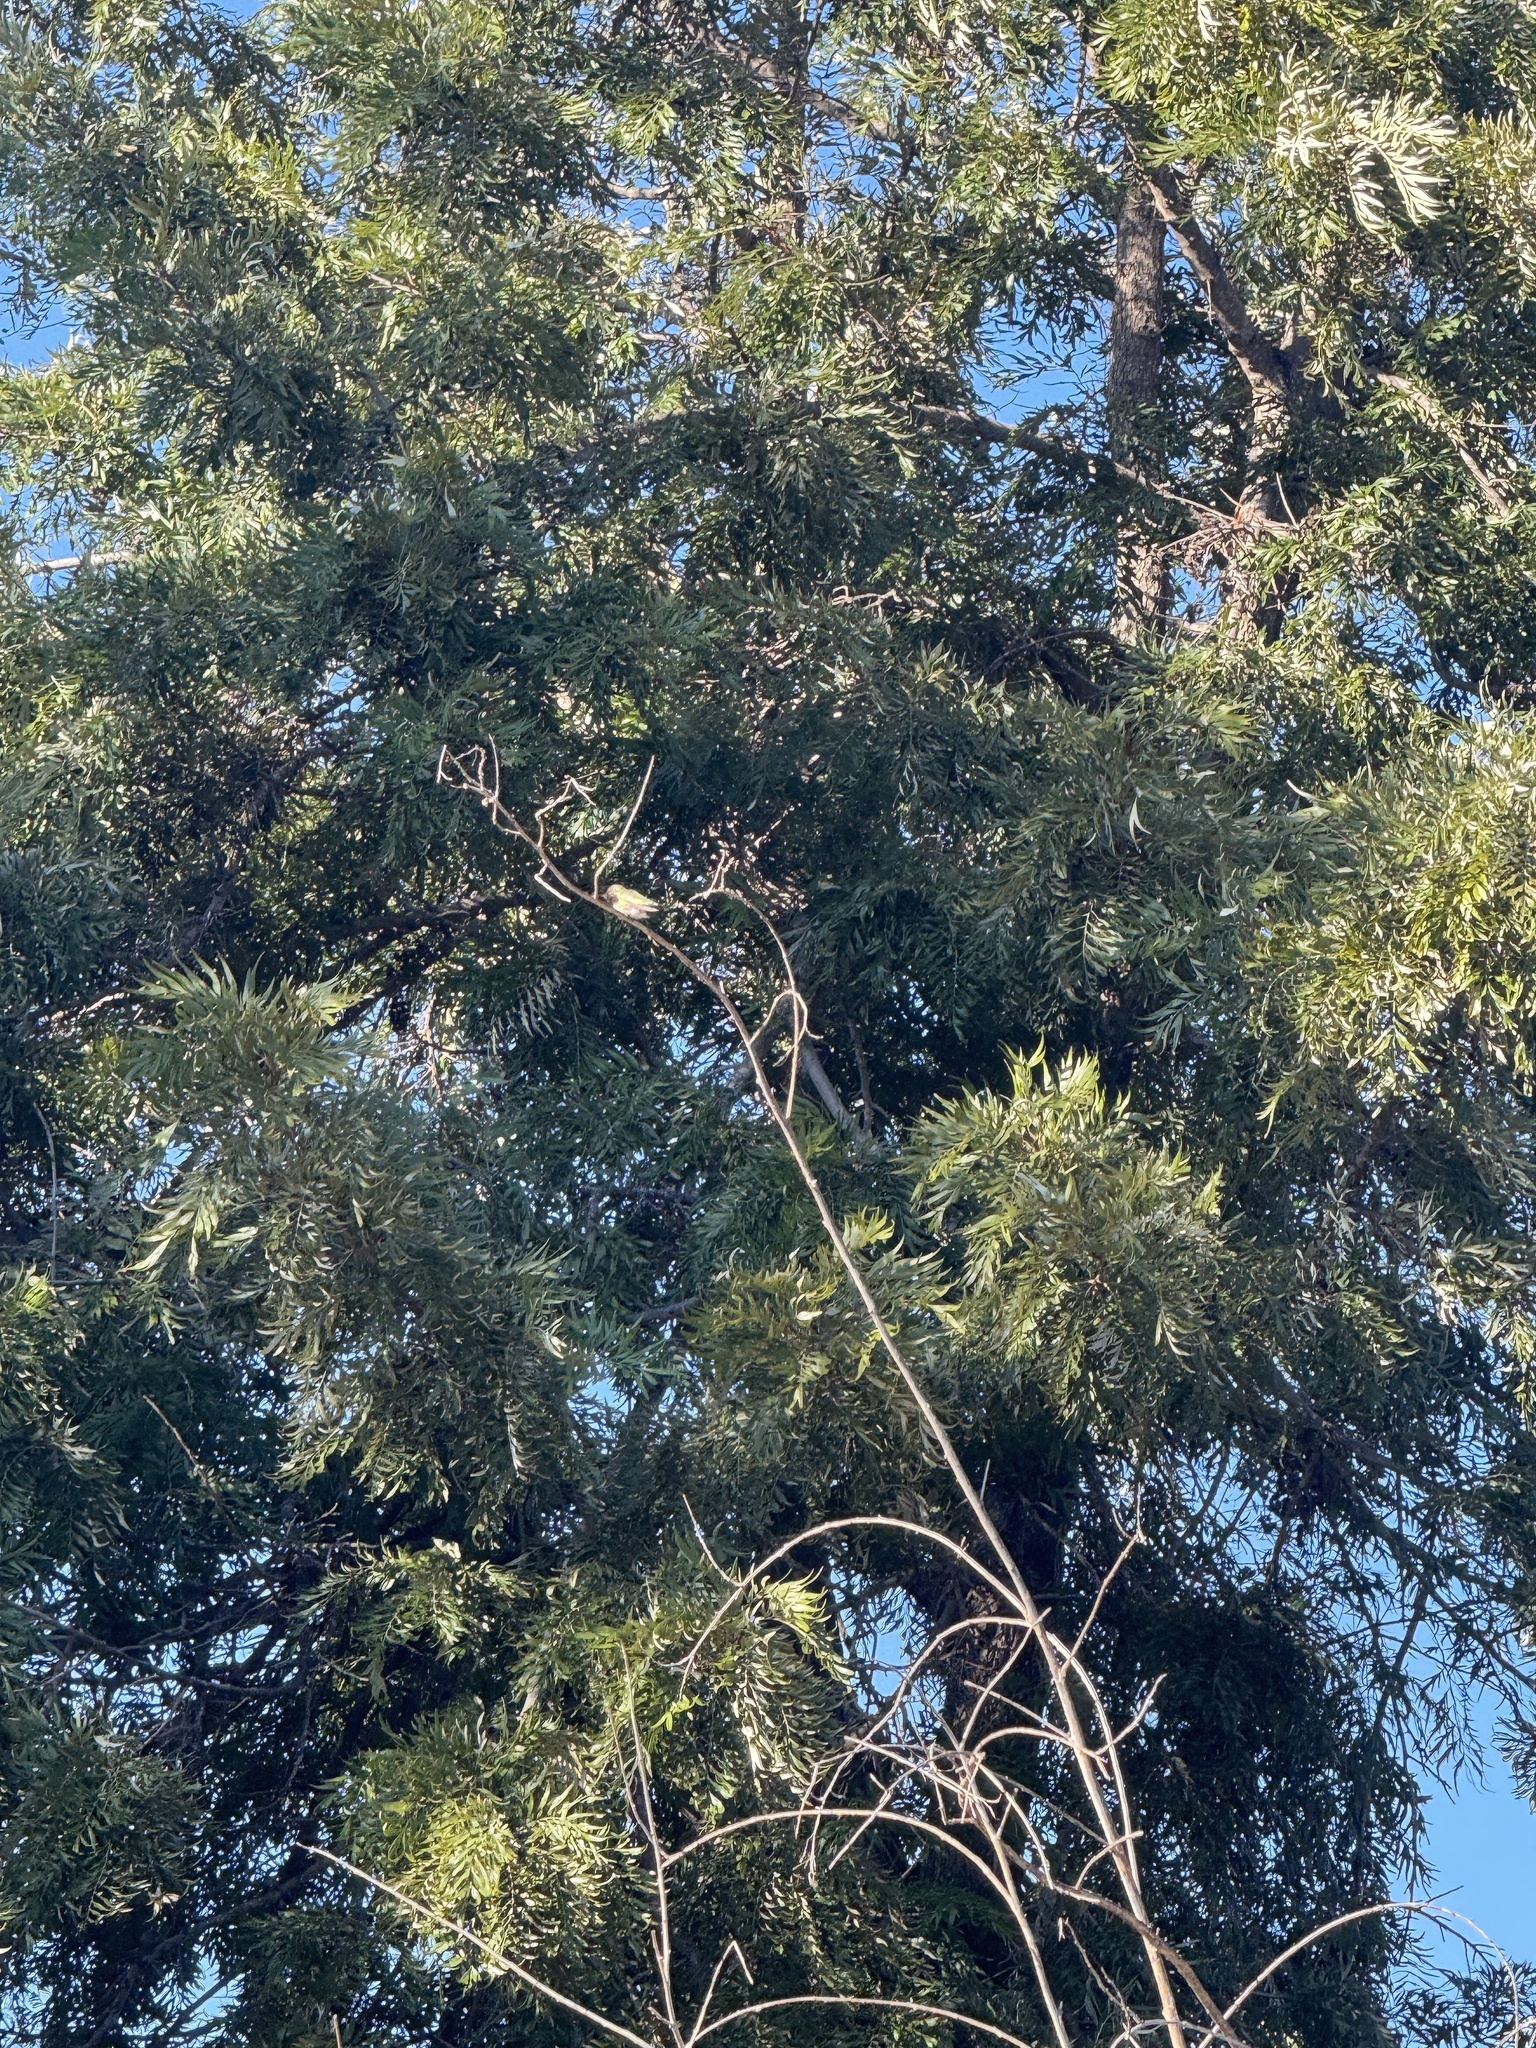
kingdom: Animalia
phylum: Chordata
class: Aves
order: Apodiformes
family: Trochilidae
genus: Calypte
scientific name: Calypte anna
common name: Anna's hummingbird
